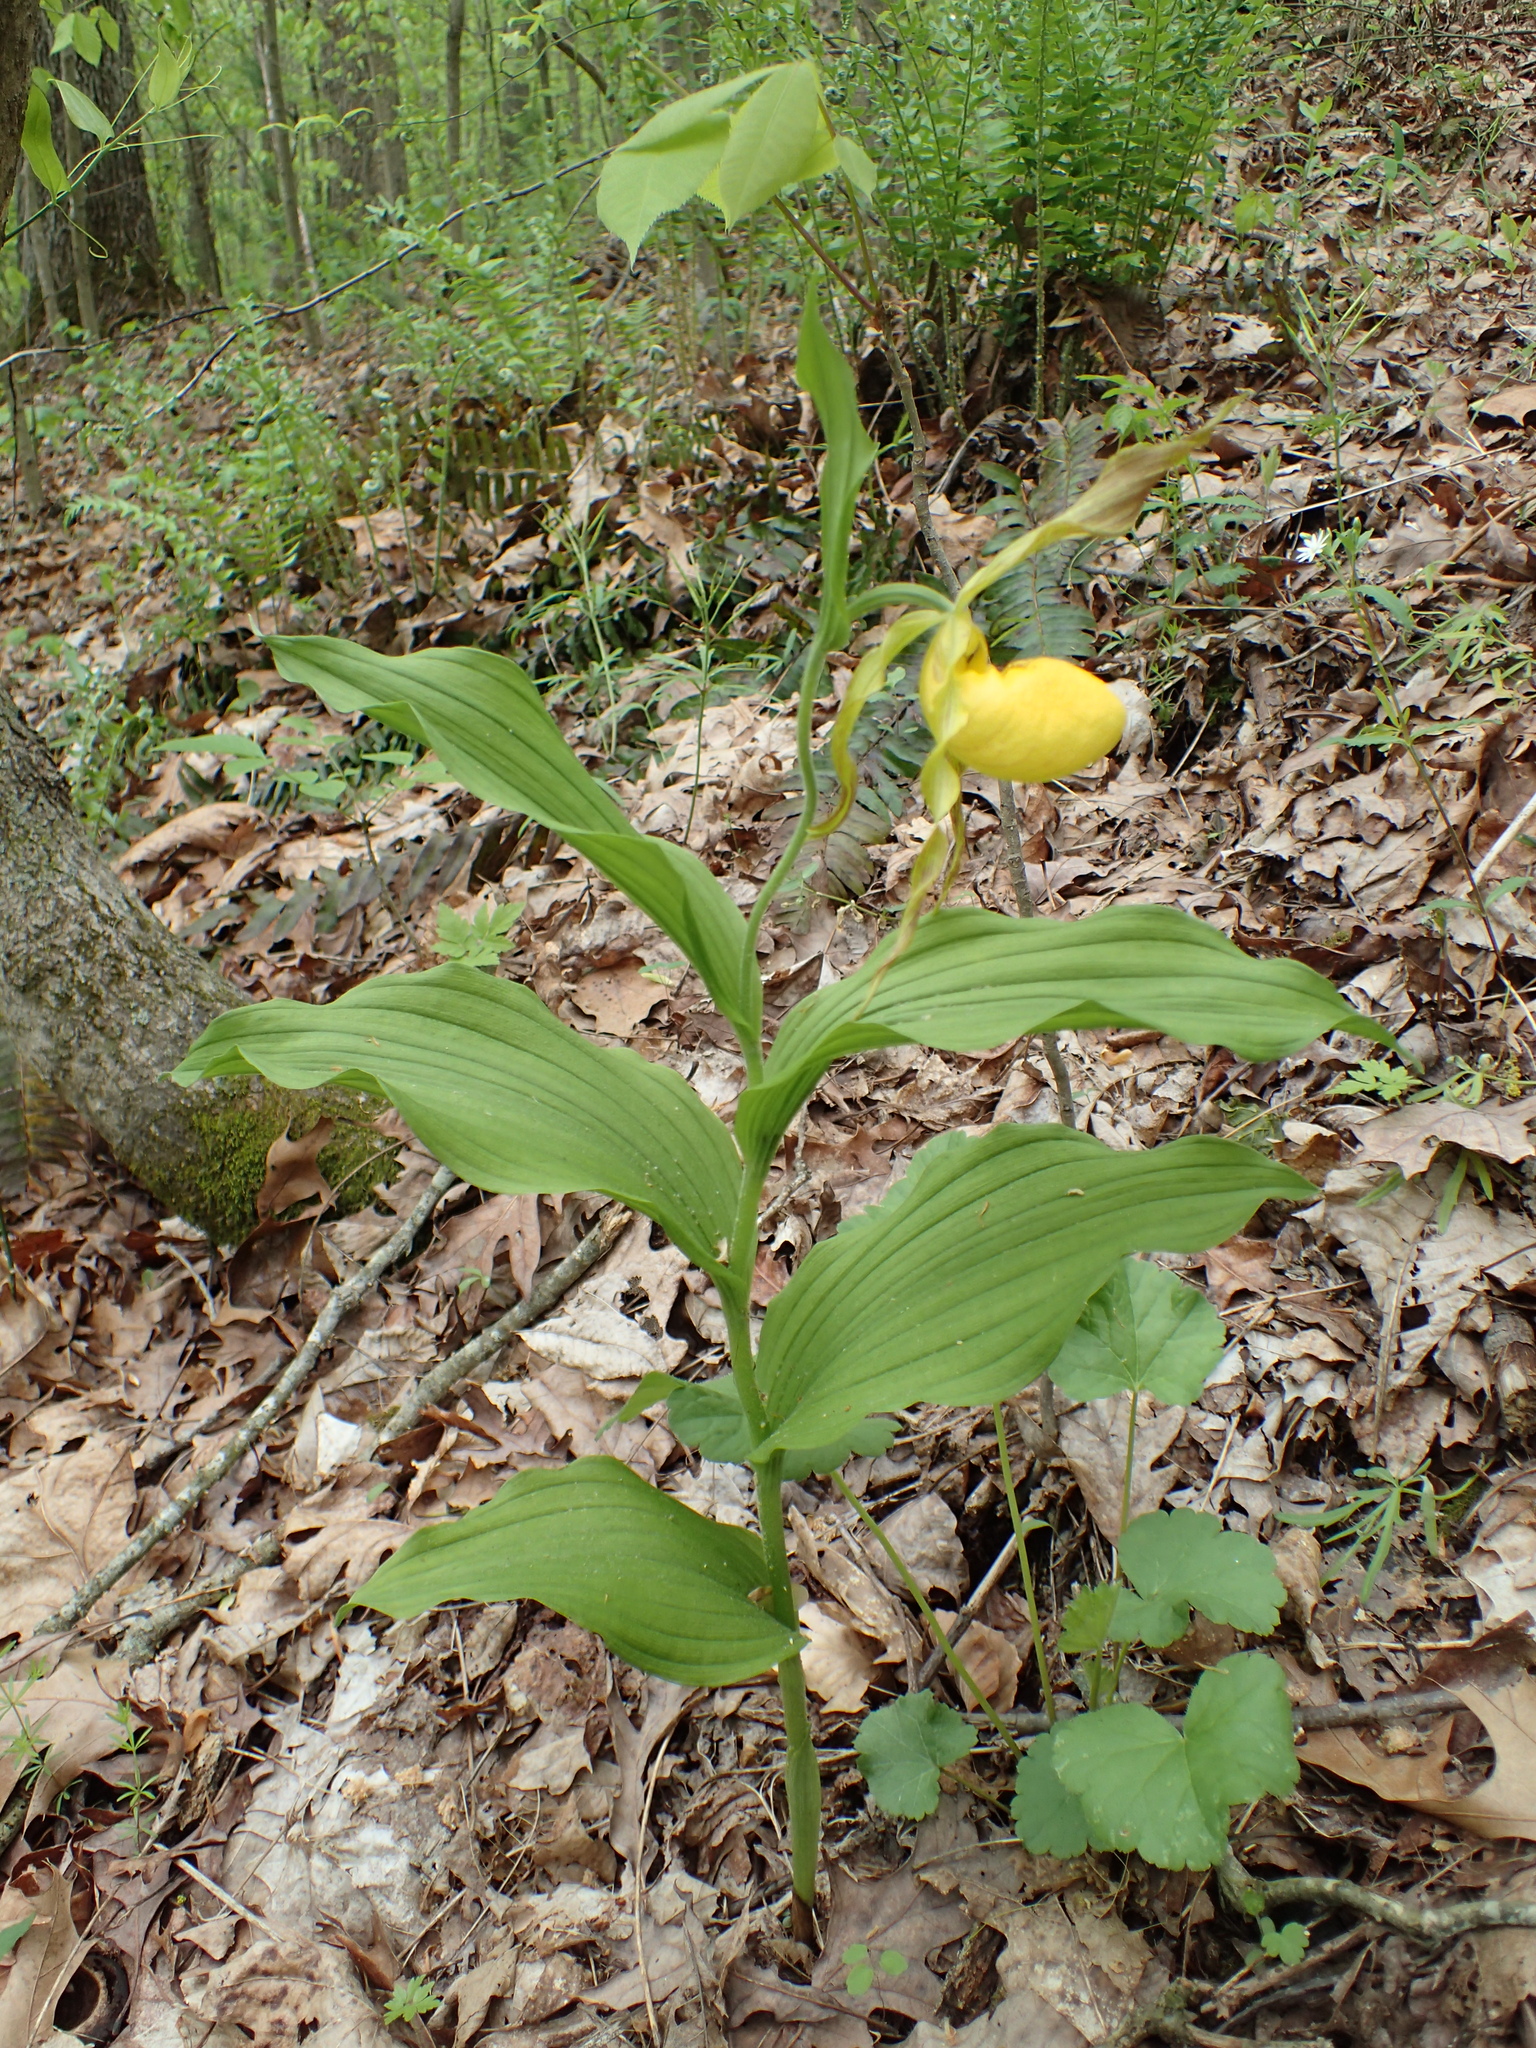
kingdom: Plantae
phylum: Tracheophyta
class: Liliopsida
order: Asparagales
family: Orchidaceae
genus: Cypripedium
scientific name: Cypripedium parviflorum
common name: American yellow lady's-slipper
